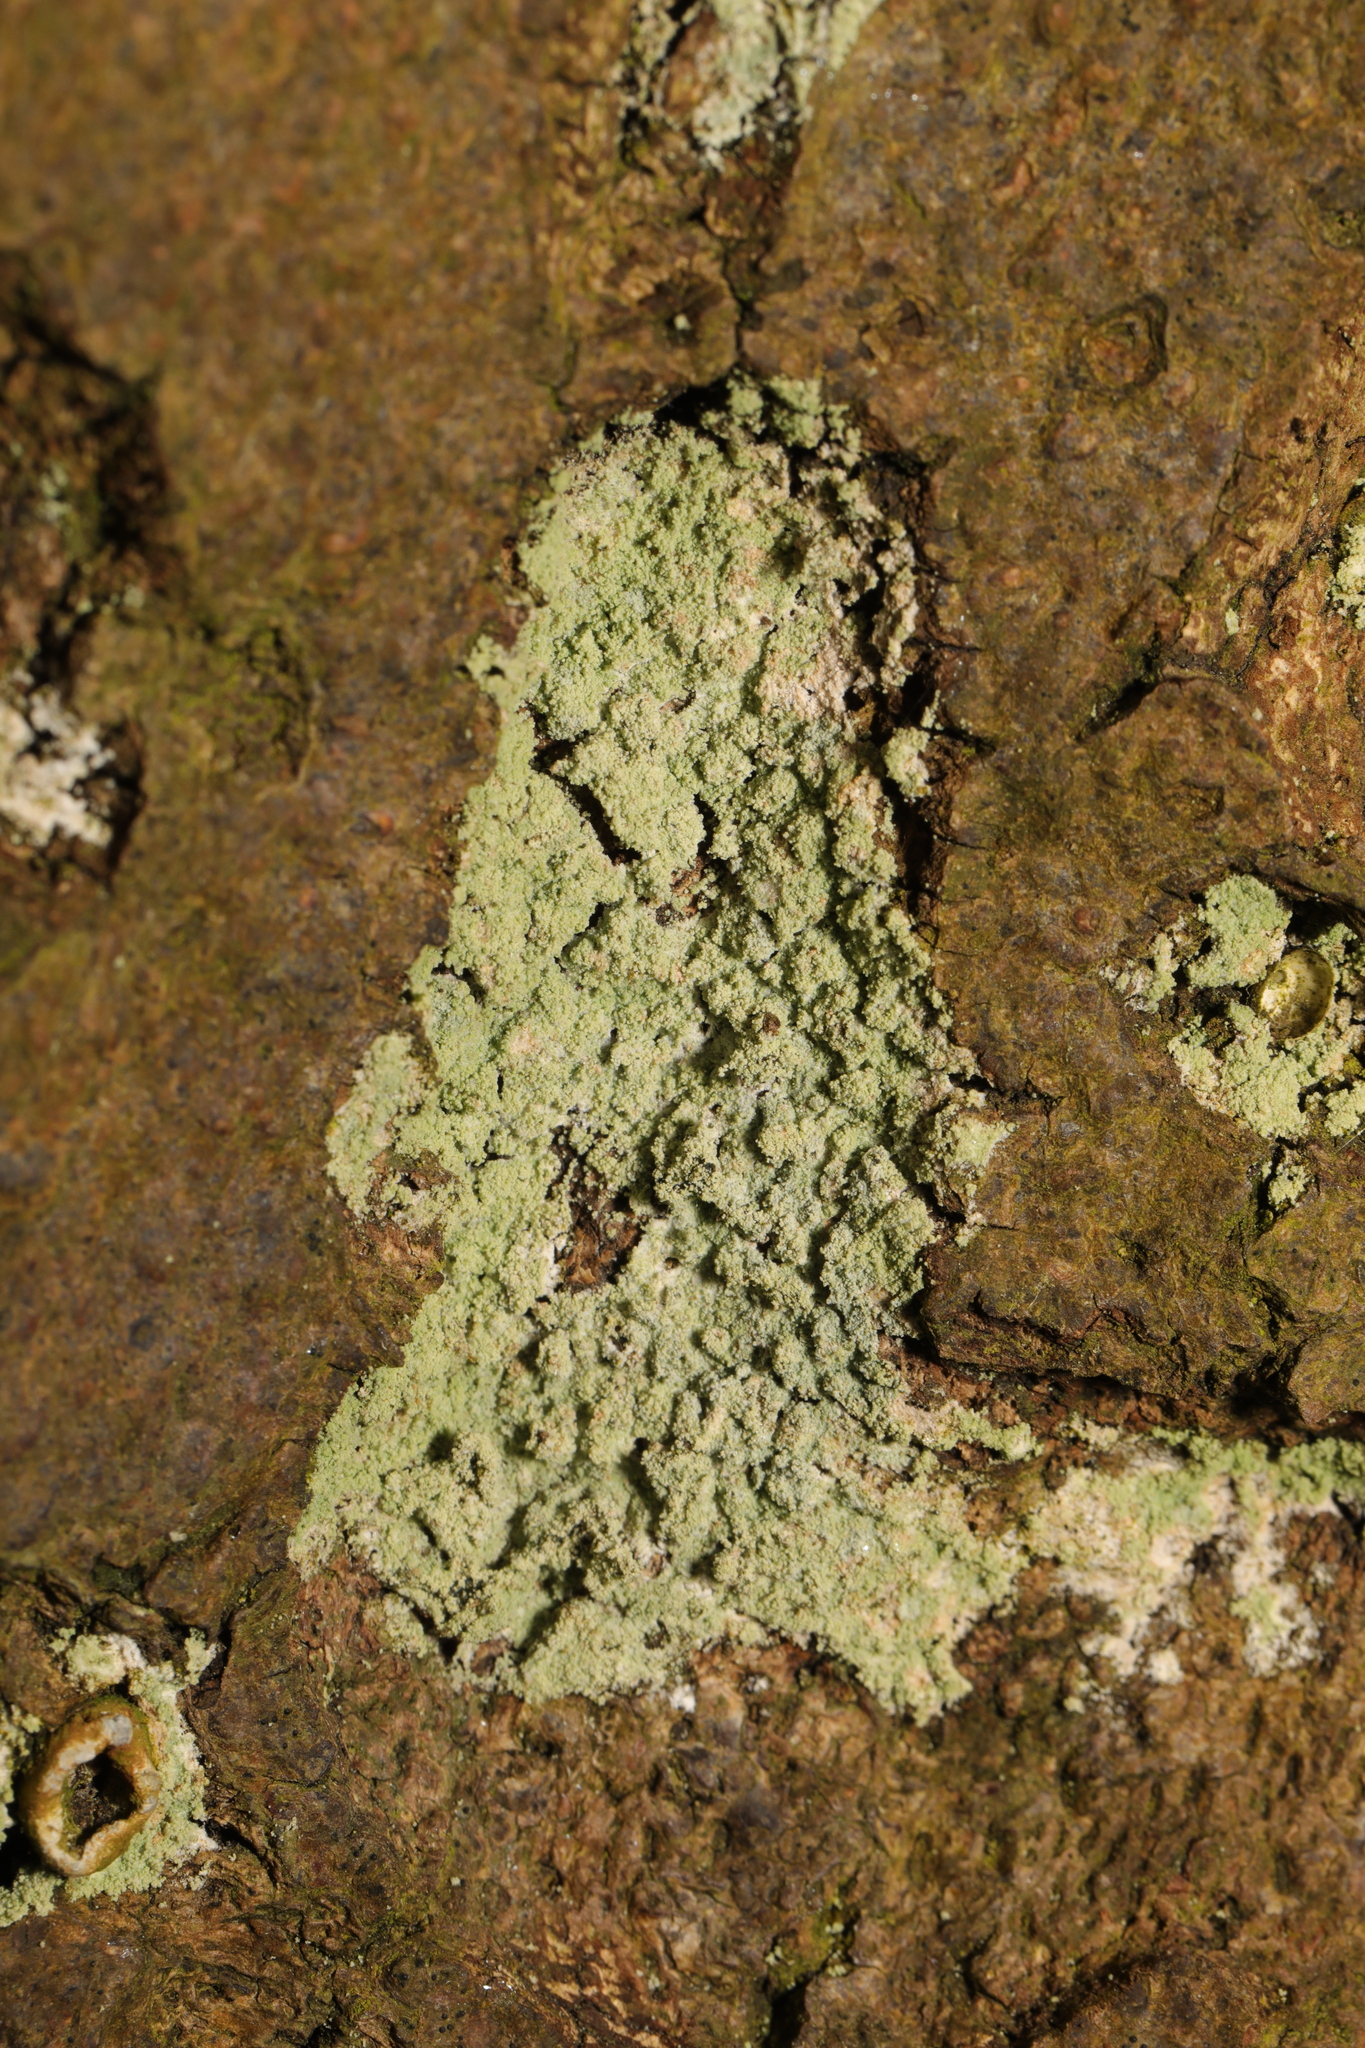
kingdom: Fungi
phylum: Ascomycota
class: Lecanoromycetes
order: Lecanorales
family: Stereocaulaceae
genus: Lepraria
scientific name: Lepraria
